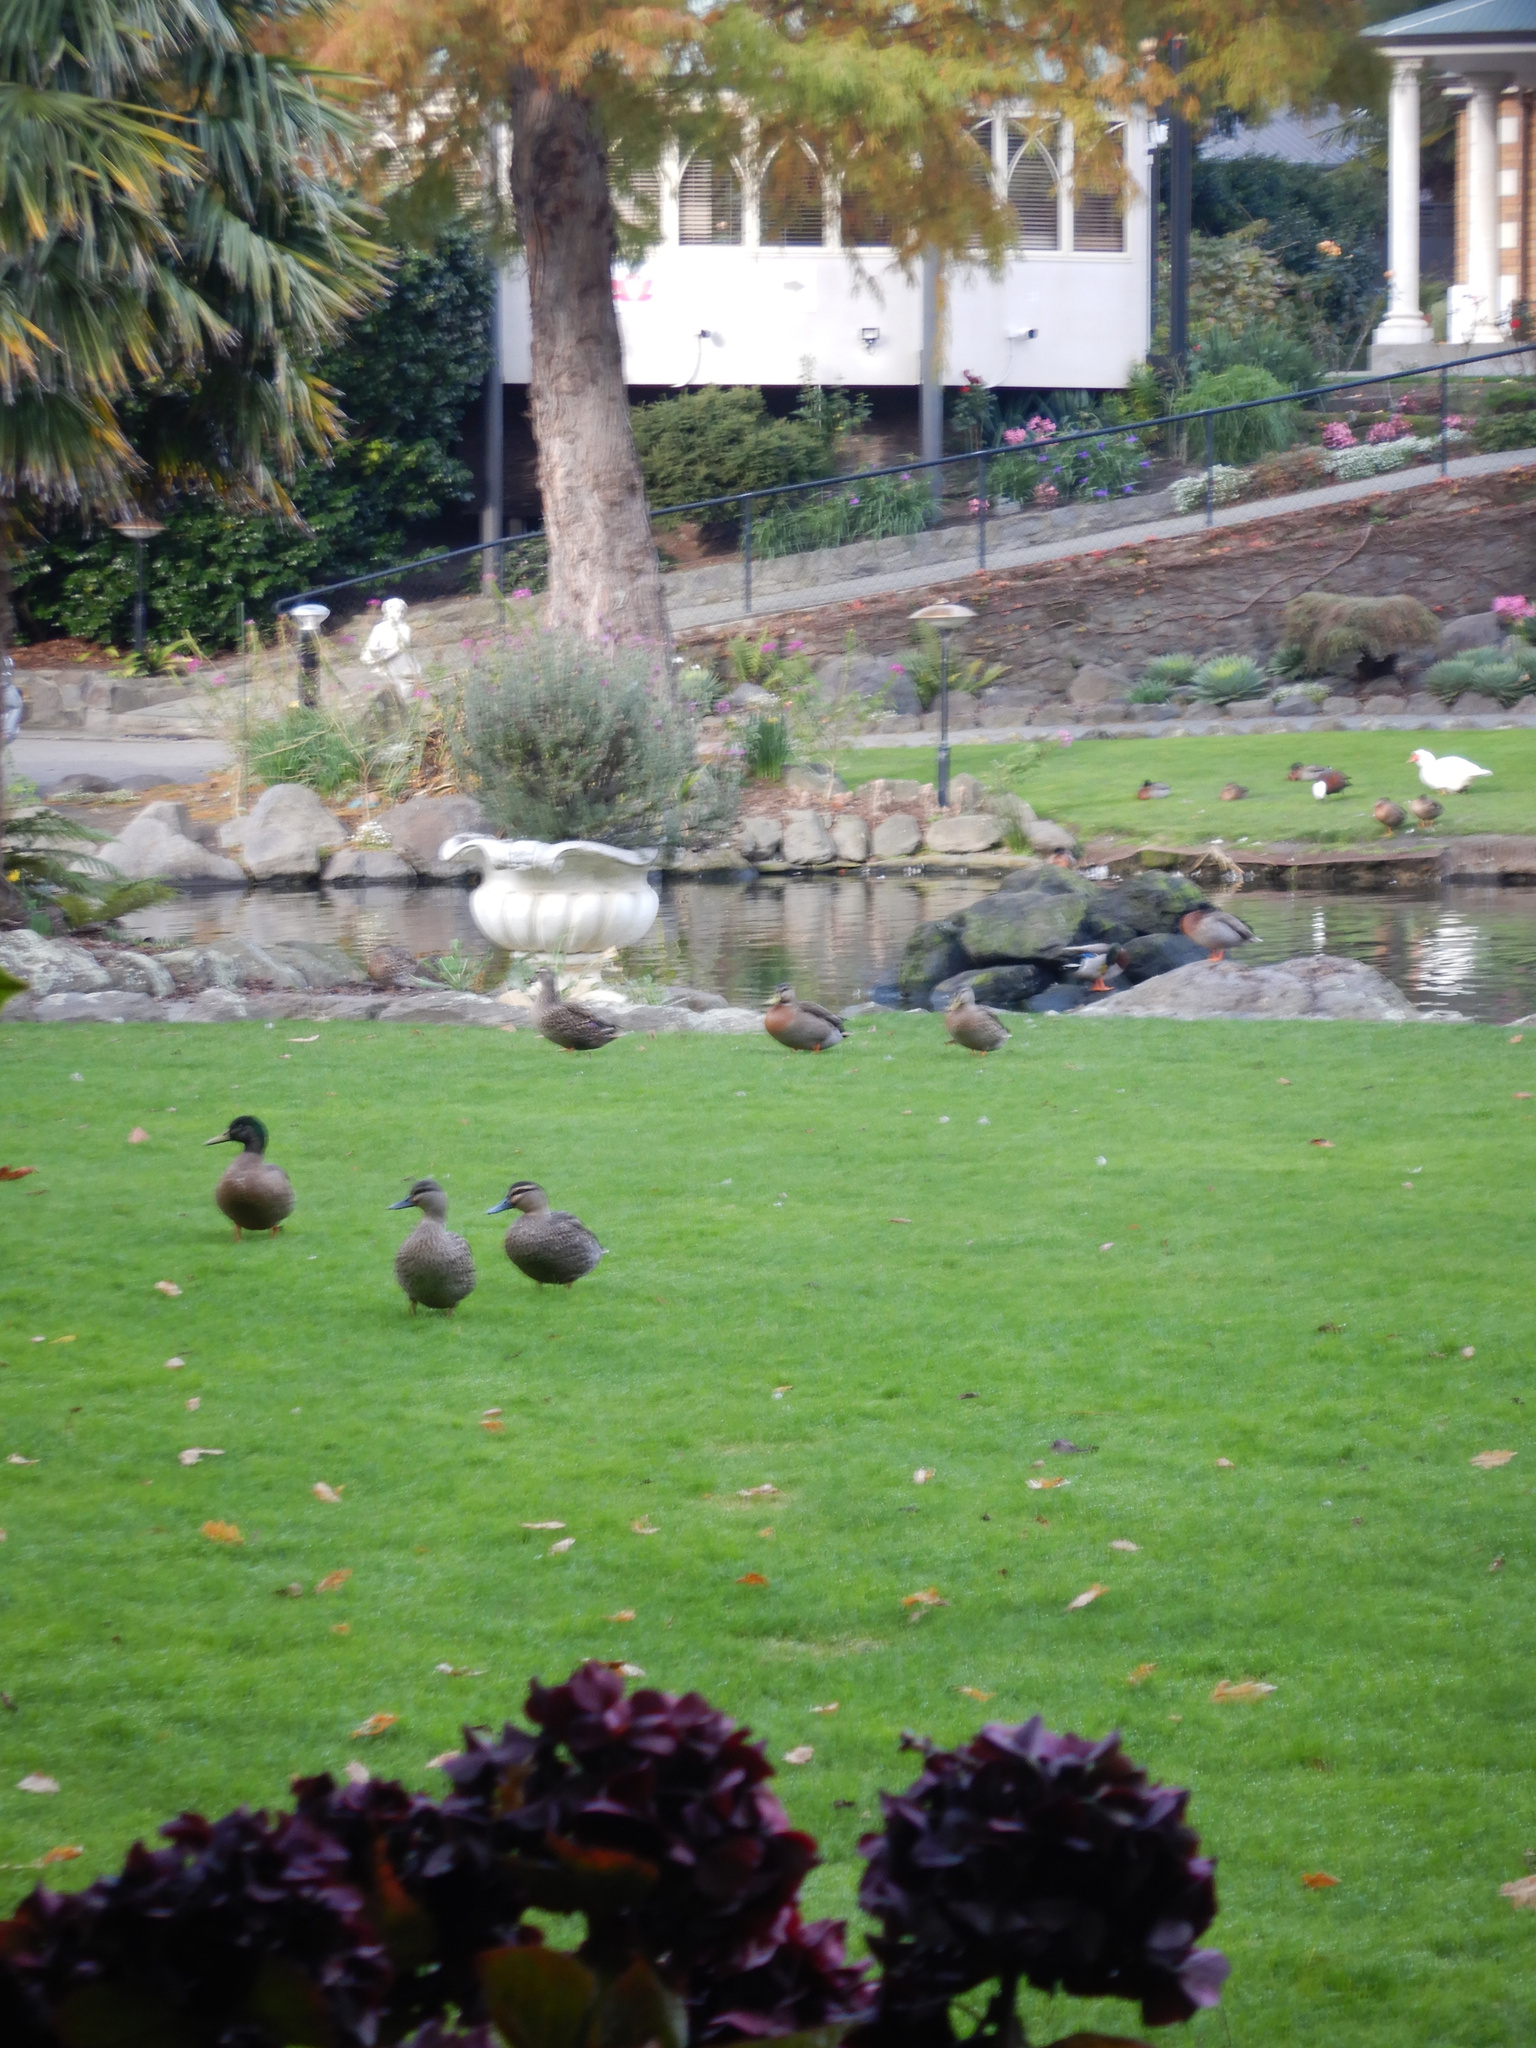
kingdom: Animalia
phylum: Chordata
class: Aves
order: Anseriformes
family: Anatidae
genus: Anas
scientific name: Anas platyrhynchos
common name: Mallard
